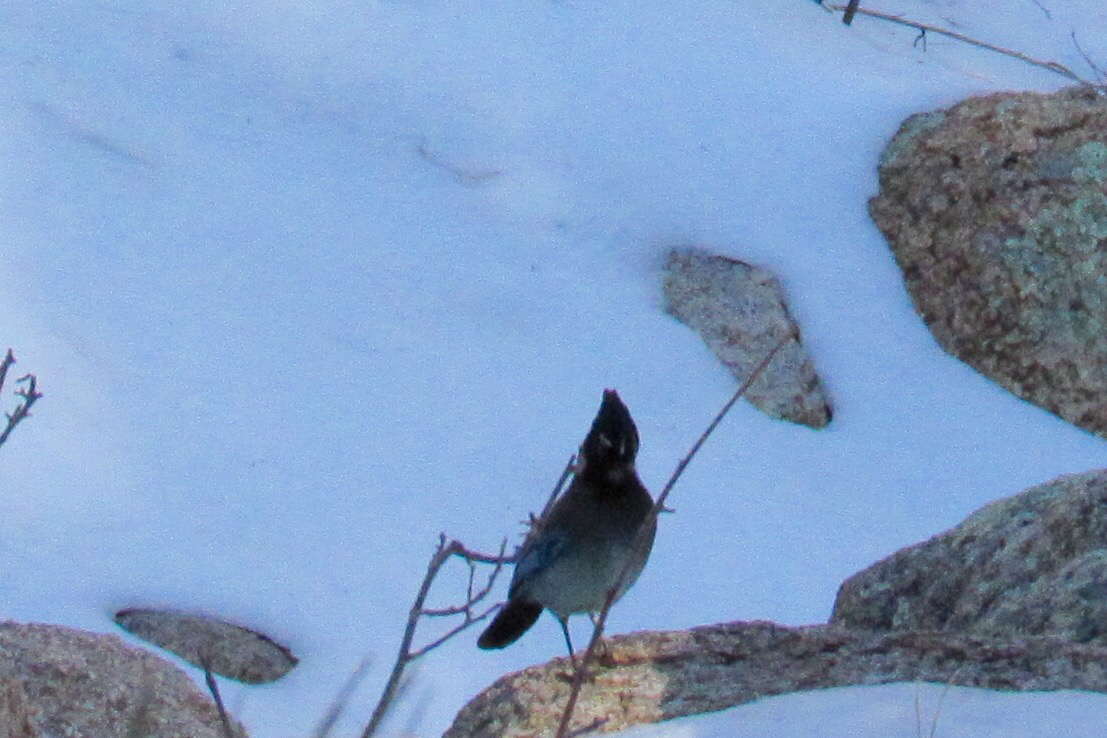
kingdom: Animalia
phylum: Chordata
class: Aves
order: Passeriformes
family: Corvidae
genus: Cyanocitta
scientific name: Cyanocitta stelleri
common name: Steller's jay
